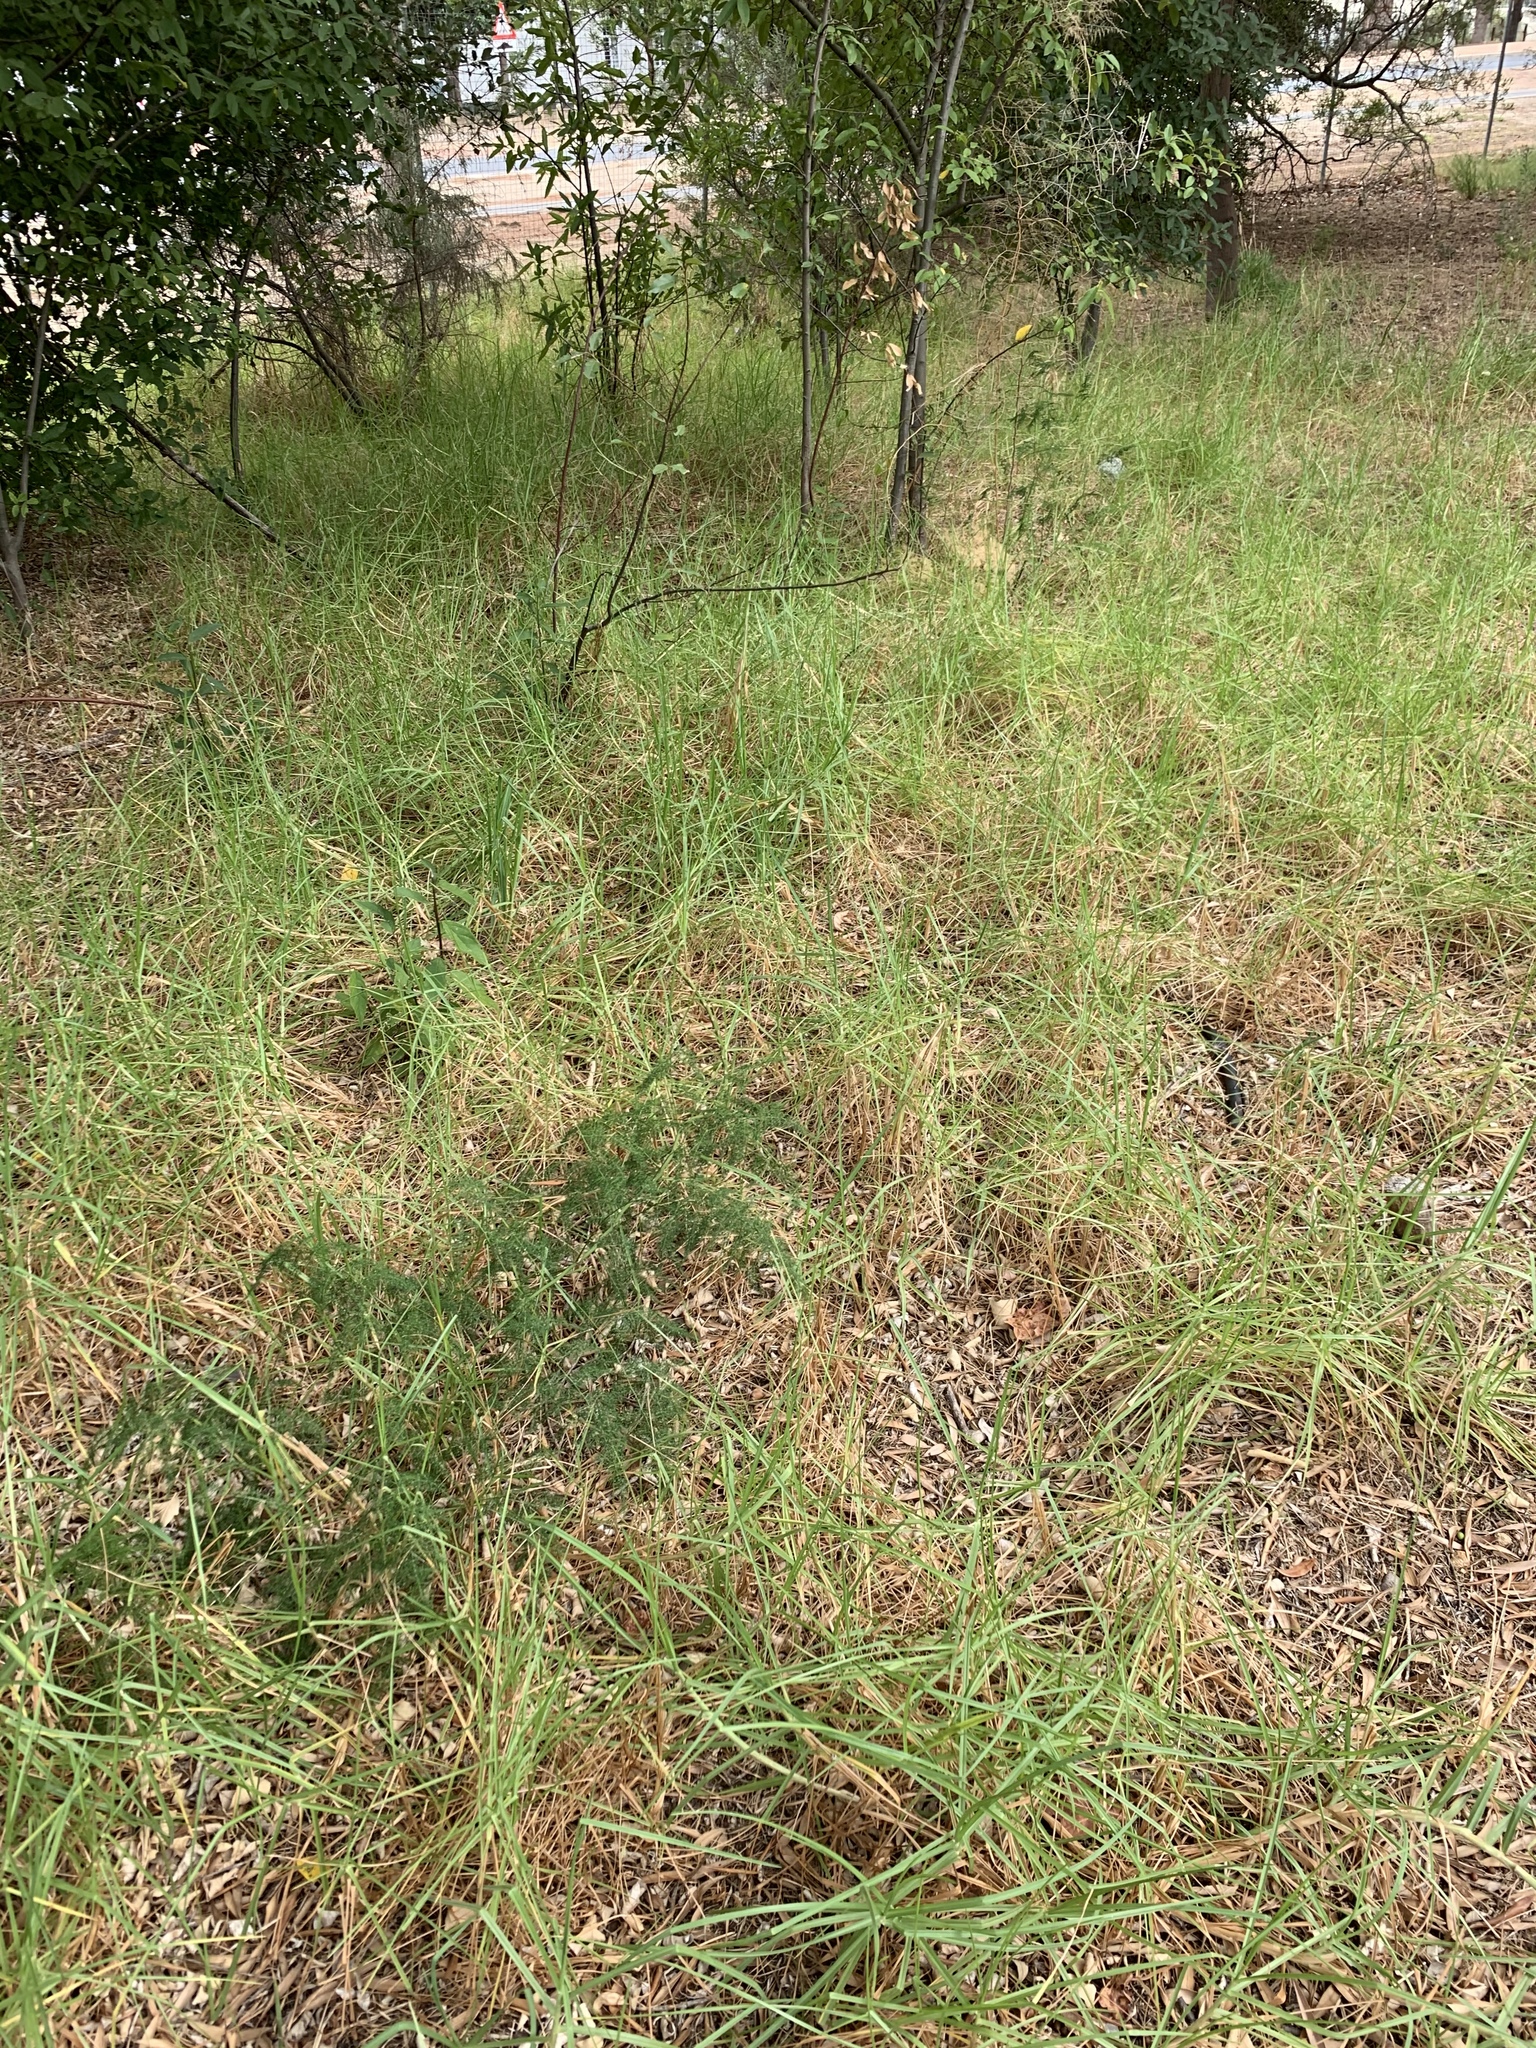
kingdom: Plantae
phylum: Tracheophyta
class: Liliopsida
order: Poales
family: Poaceae
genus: Cenchrus
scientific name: Cenchrus clandestinus
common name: Kikuyugrass
